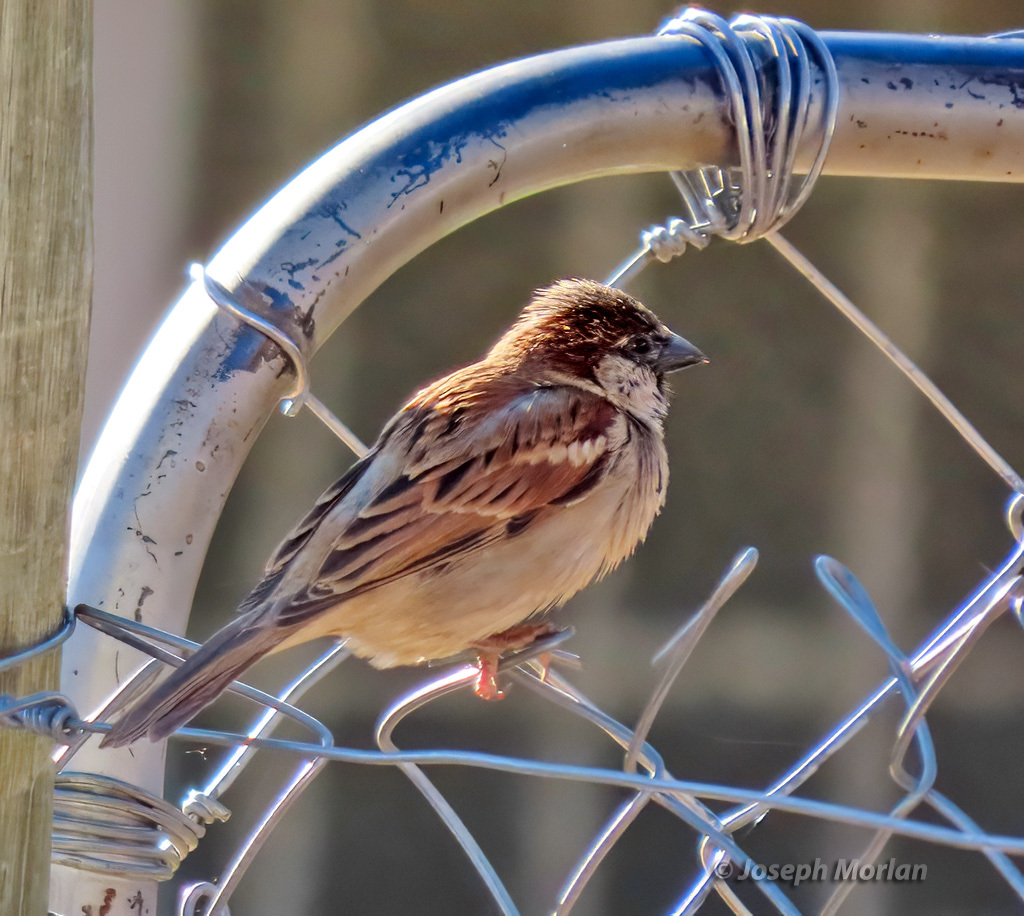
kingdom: Animalia
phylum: Chordata
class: Aves
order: Passeriformes
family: Passeridae
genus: Passer
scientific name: Passer domesticus
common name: House sparrow
